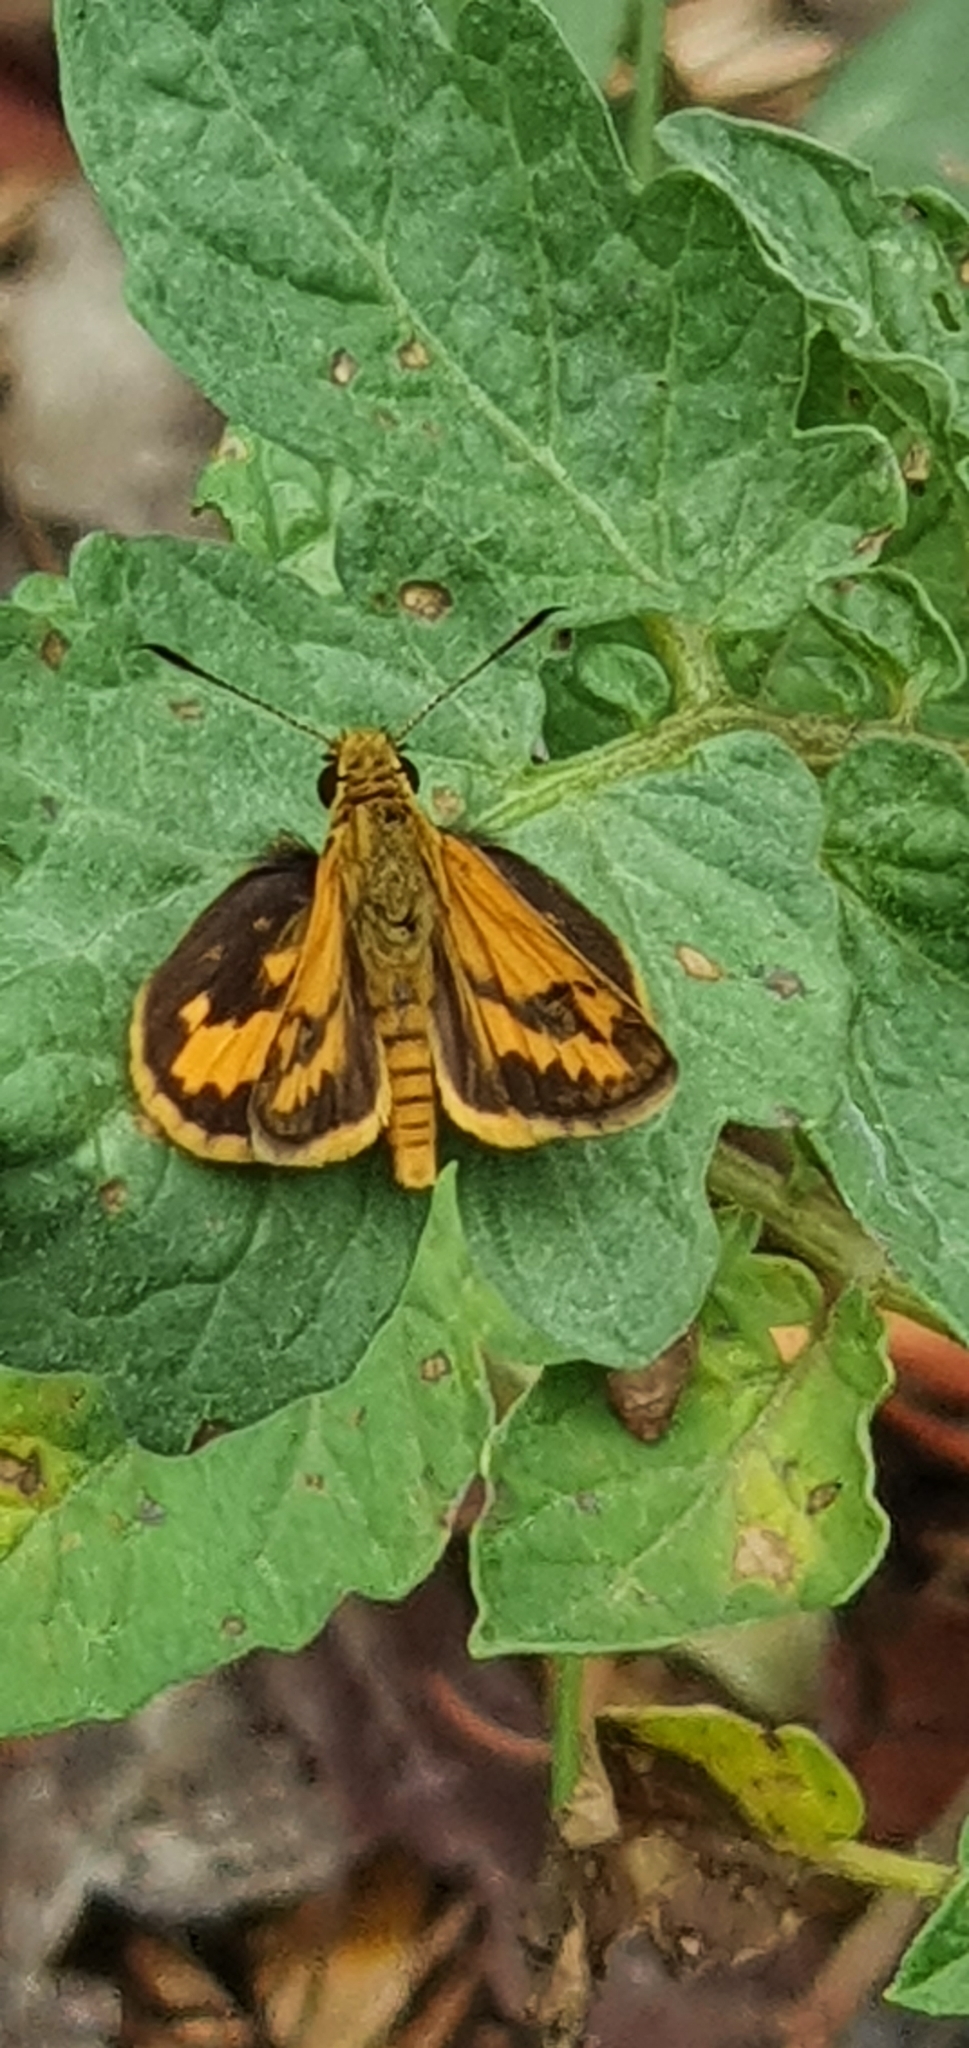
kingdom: Animalia
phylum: Arthropoda
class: Insecta
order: Lepidoptera
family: Hesperiidae
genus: Suniana
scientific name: Suniana sunias
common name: Wide-brand grass-dart
